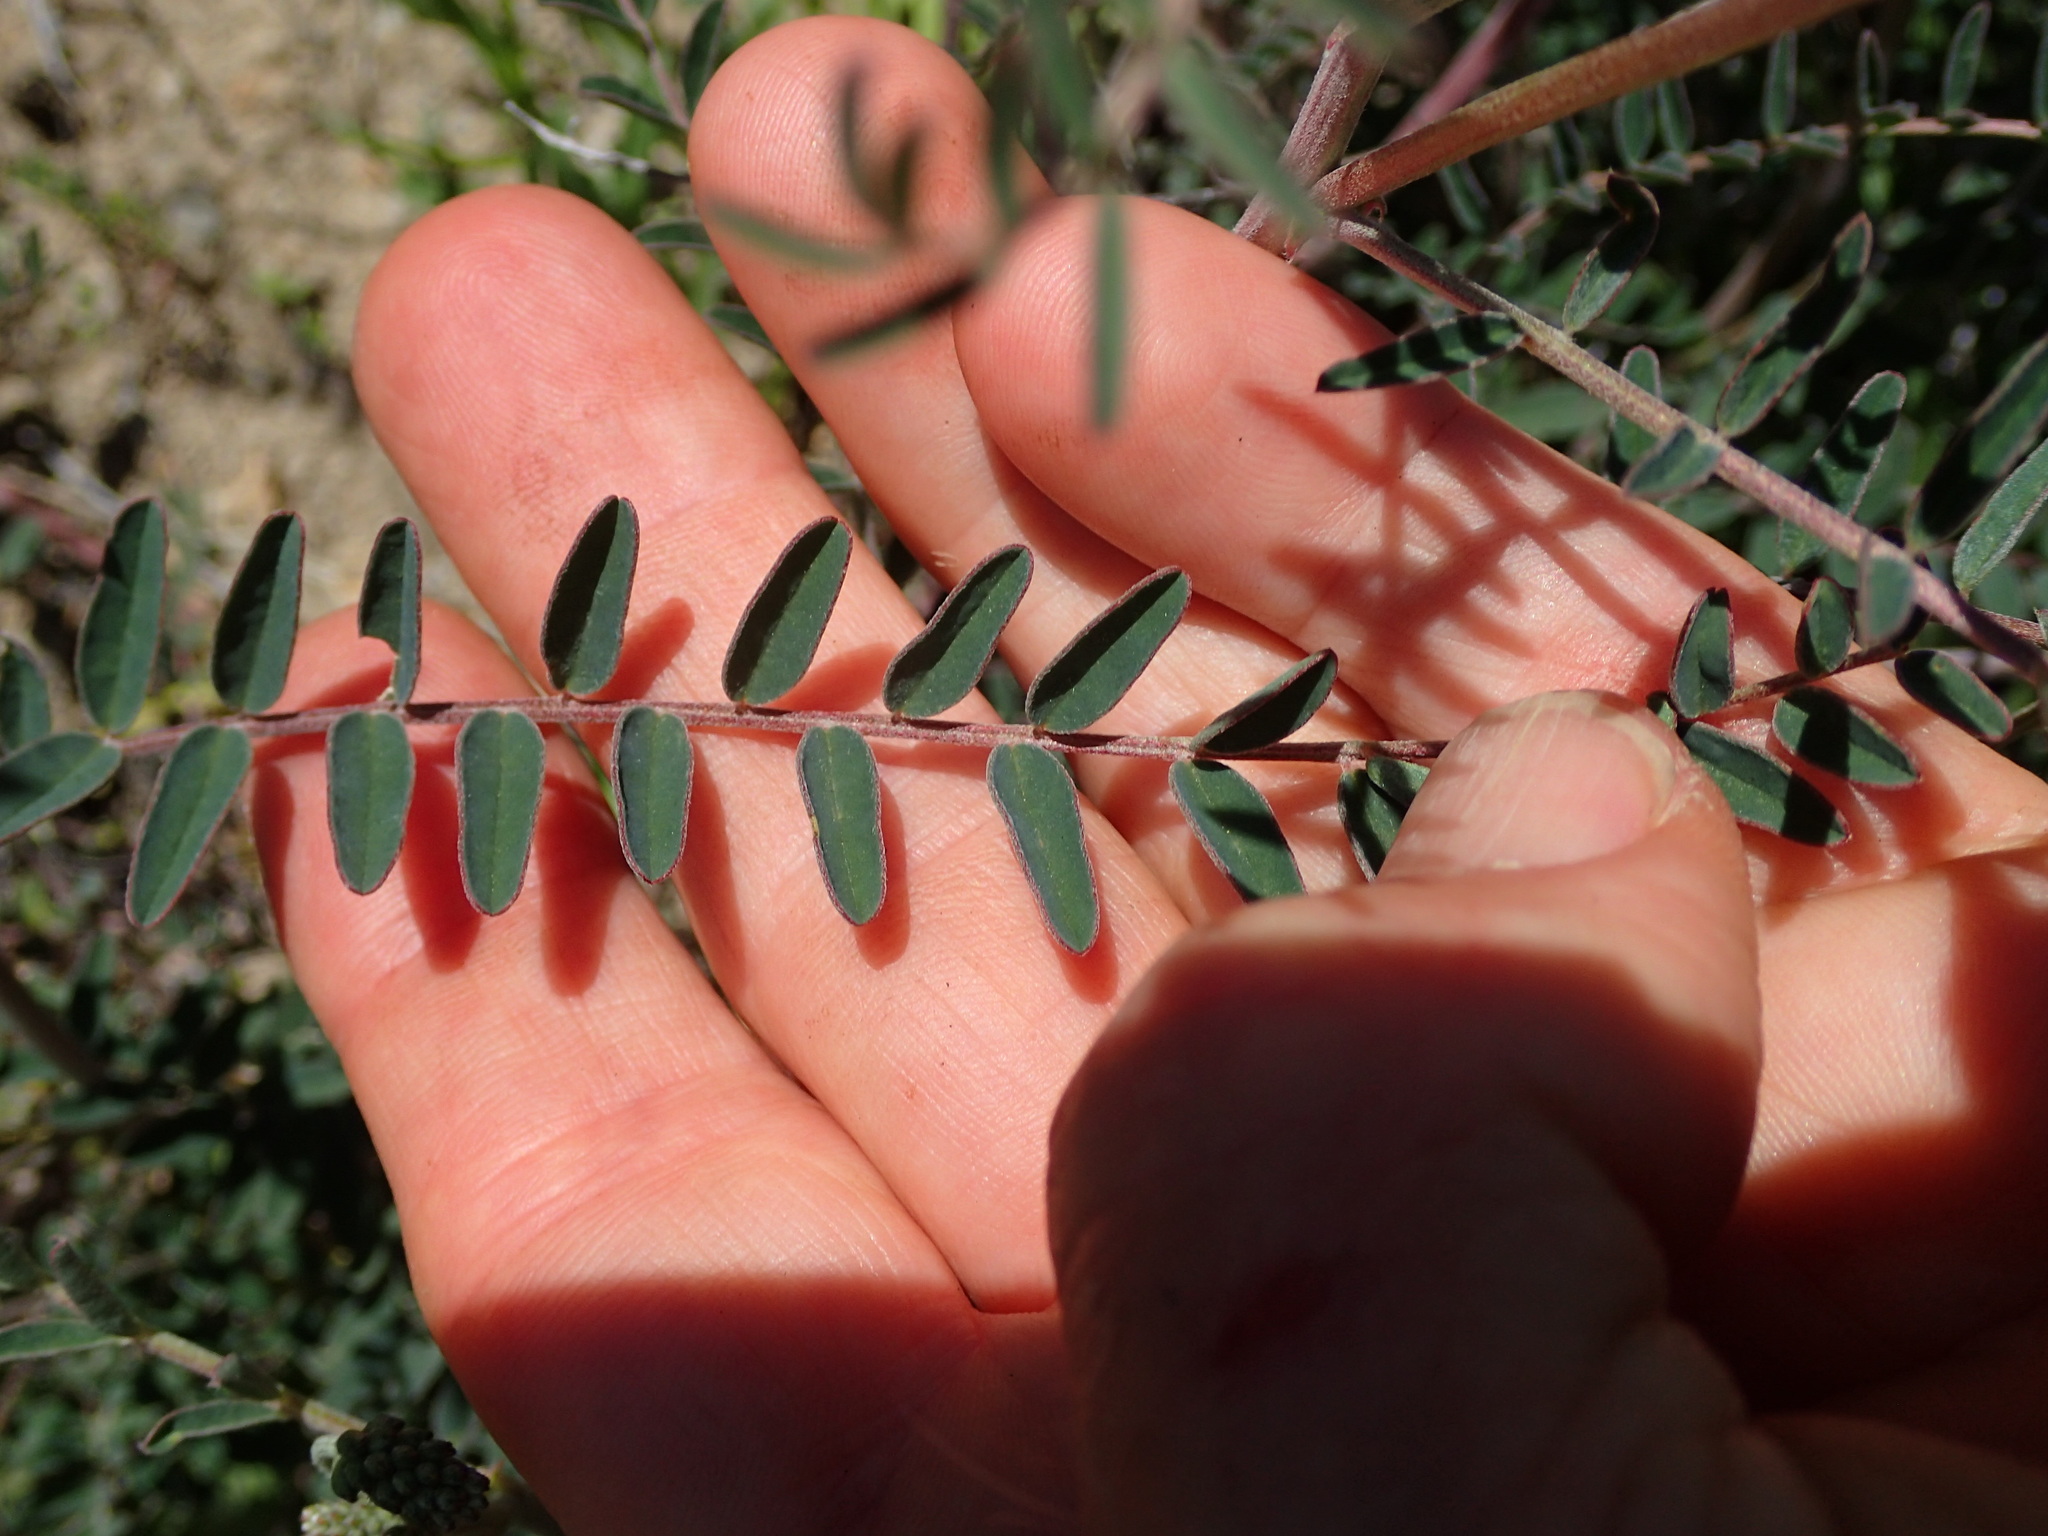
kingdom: Plantae
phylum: Tracheophyta
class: Magnoliopsida
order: Fabales
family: Fabaceae
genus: Astragalus
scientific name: Astragalus trichopodus
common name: Santa barbara milk-vetch
